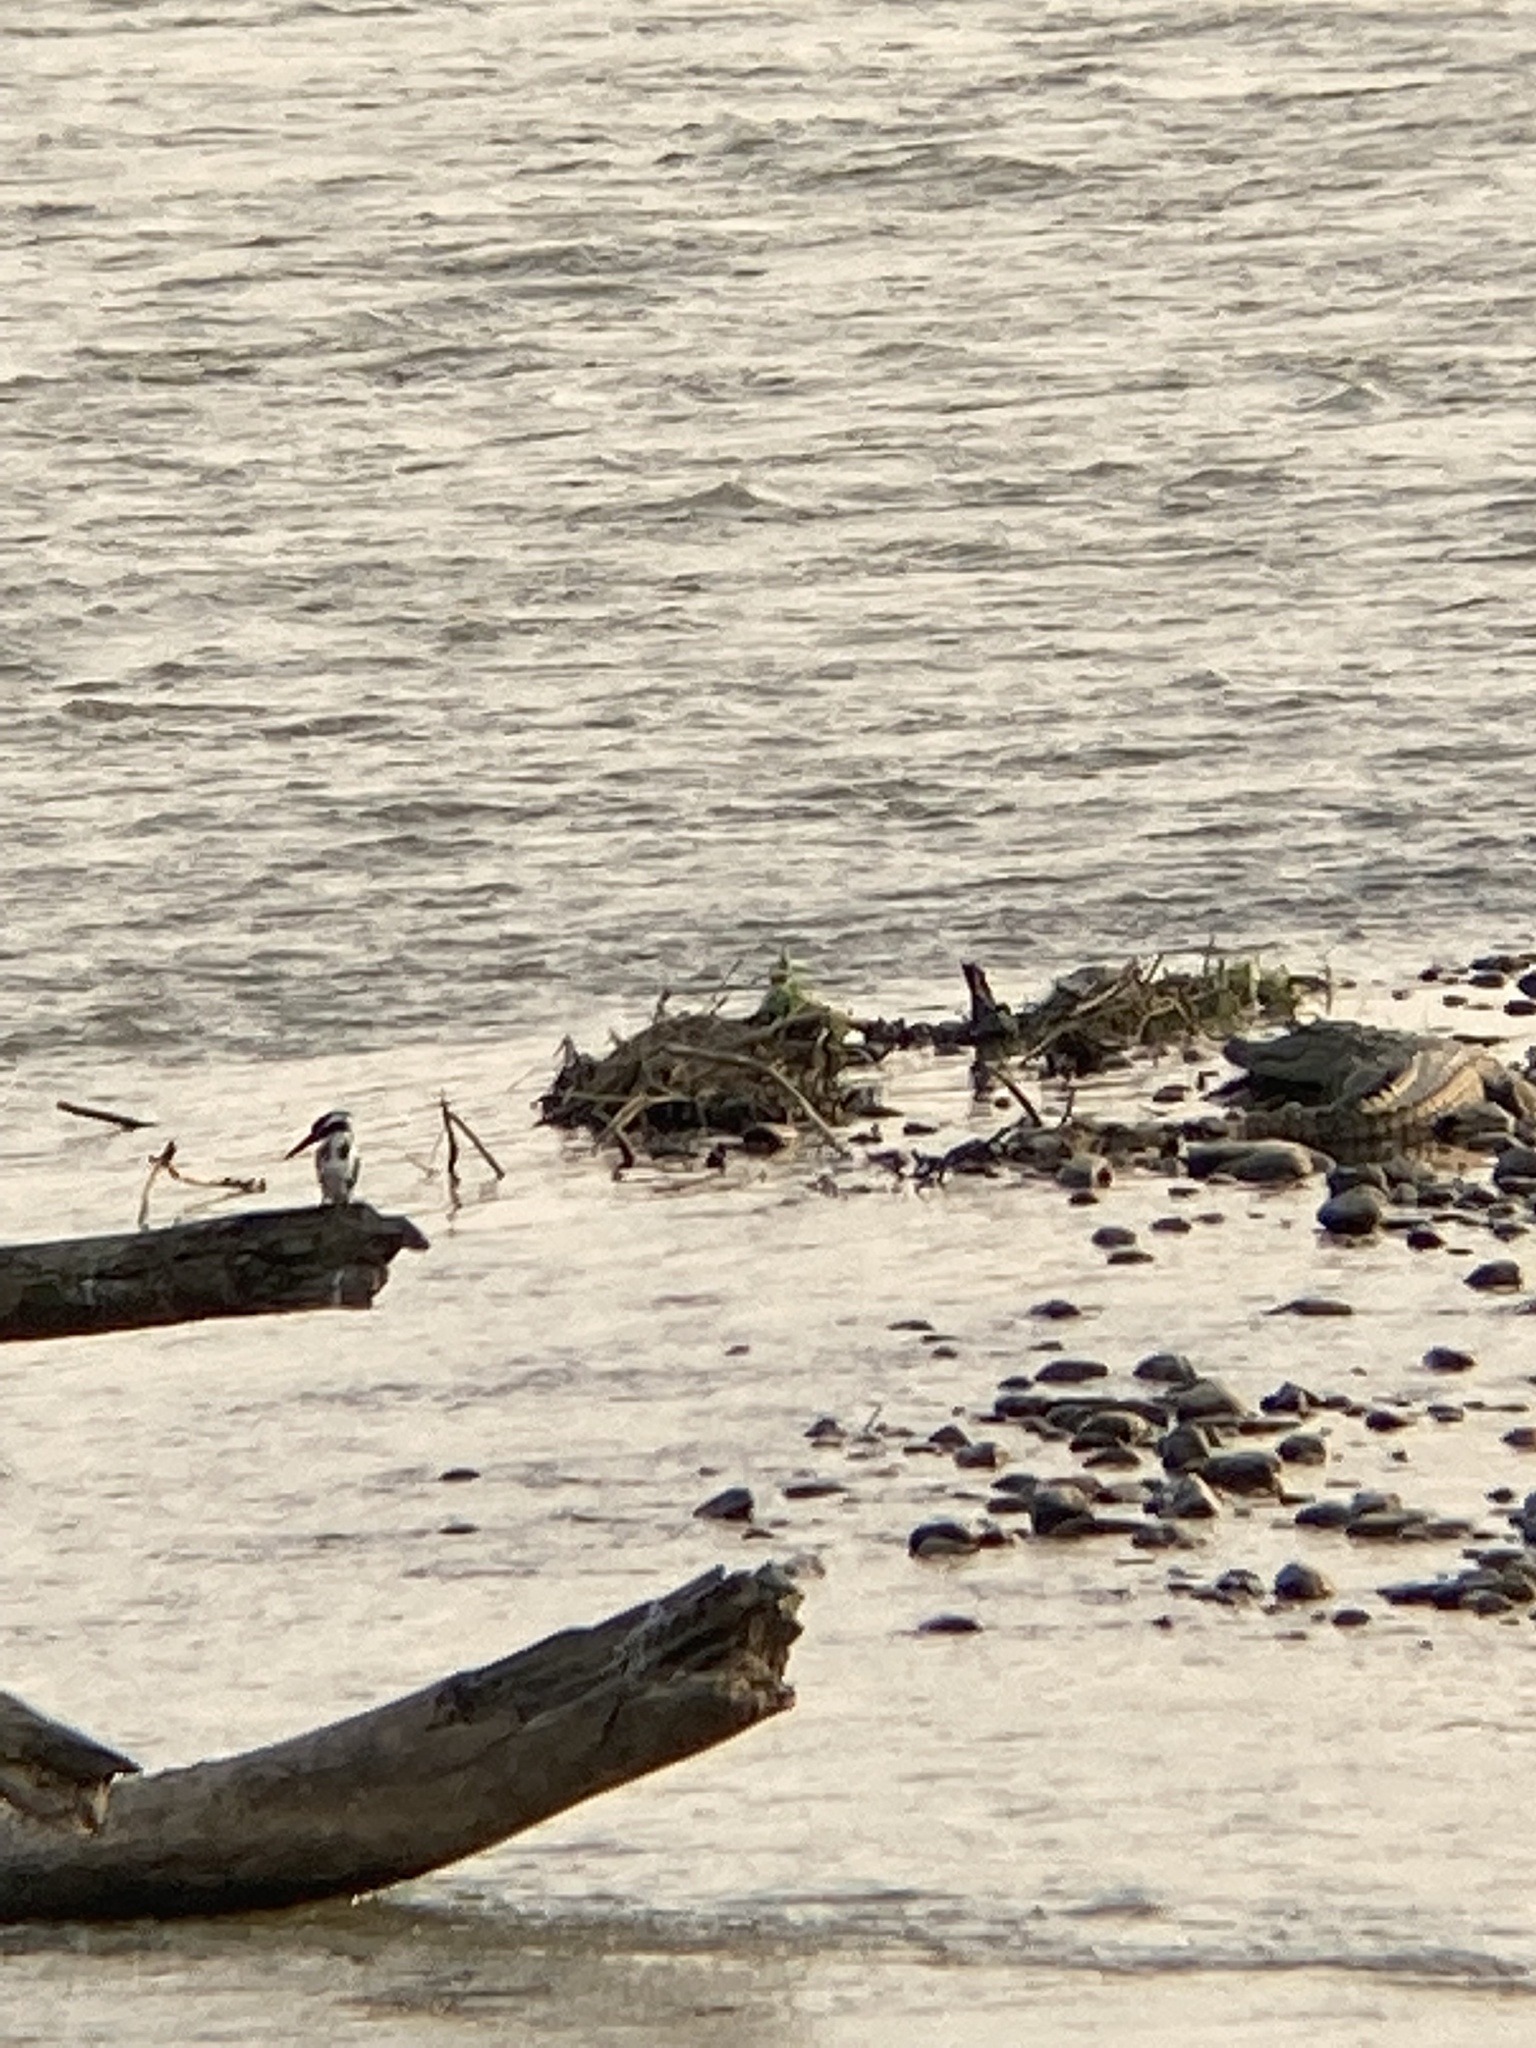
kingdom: Animalia
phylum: Chordata
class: Aves
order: Coraciiformes
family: Alcedinidae
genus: Ceryle
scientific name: Ceryle rudis
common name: Pied kingfisher
